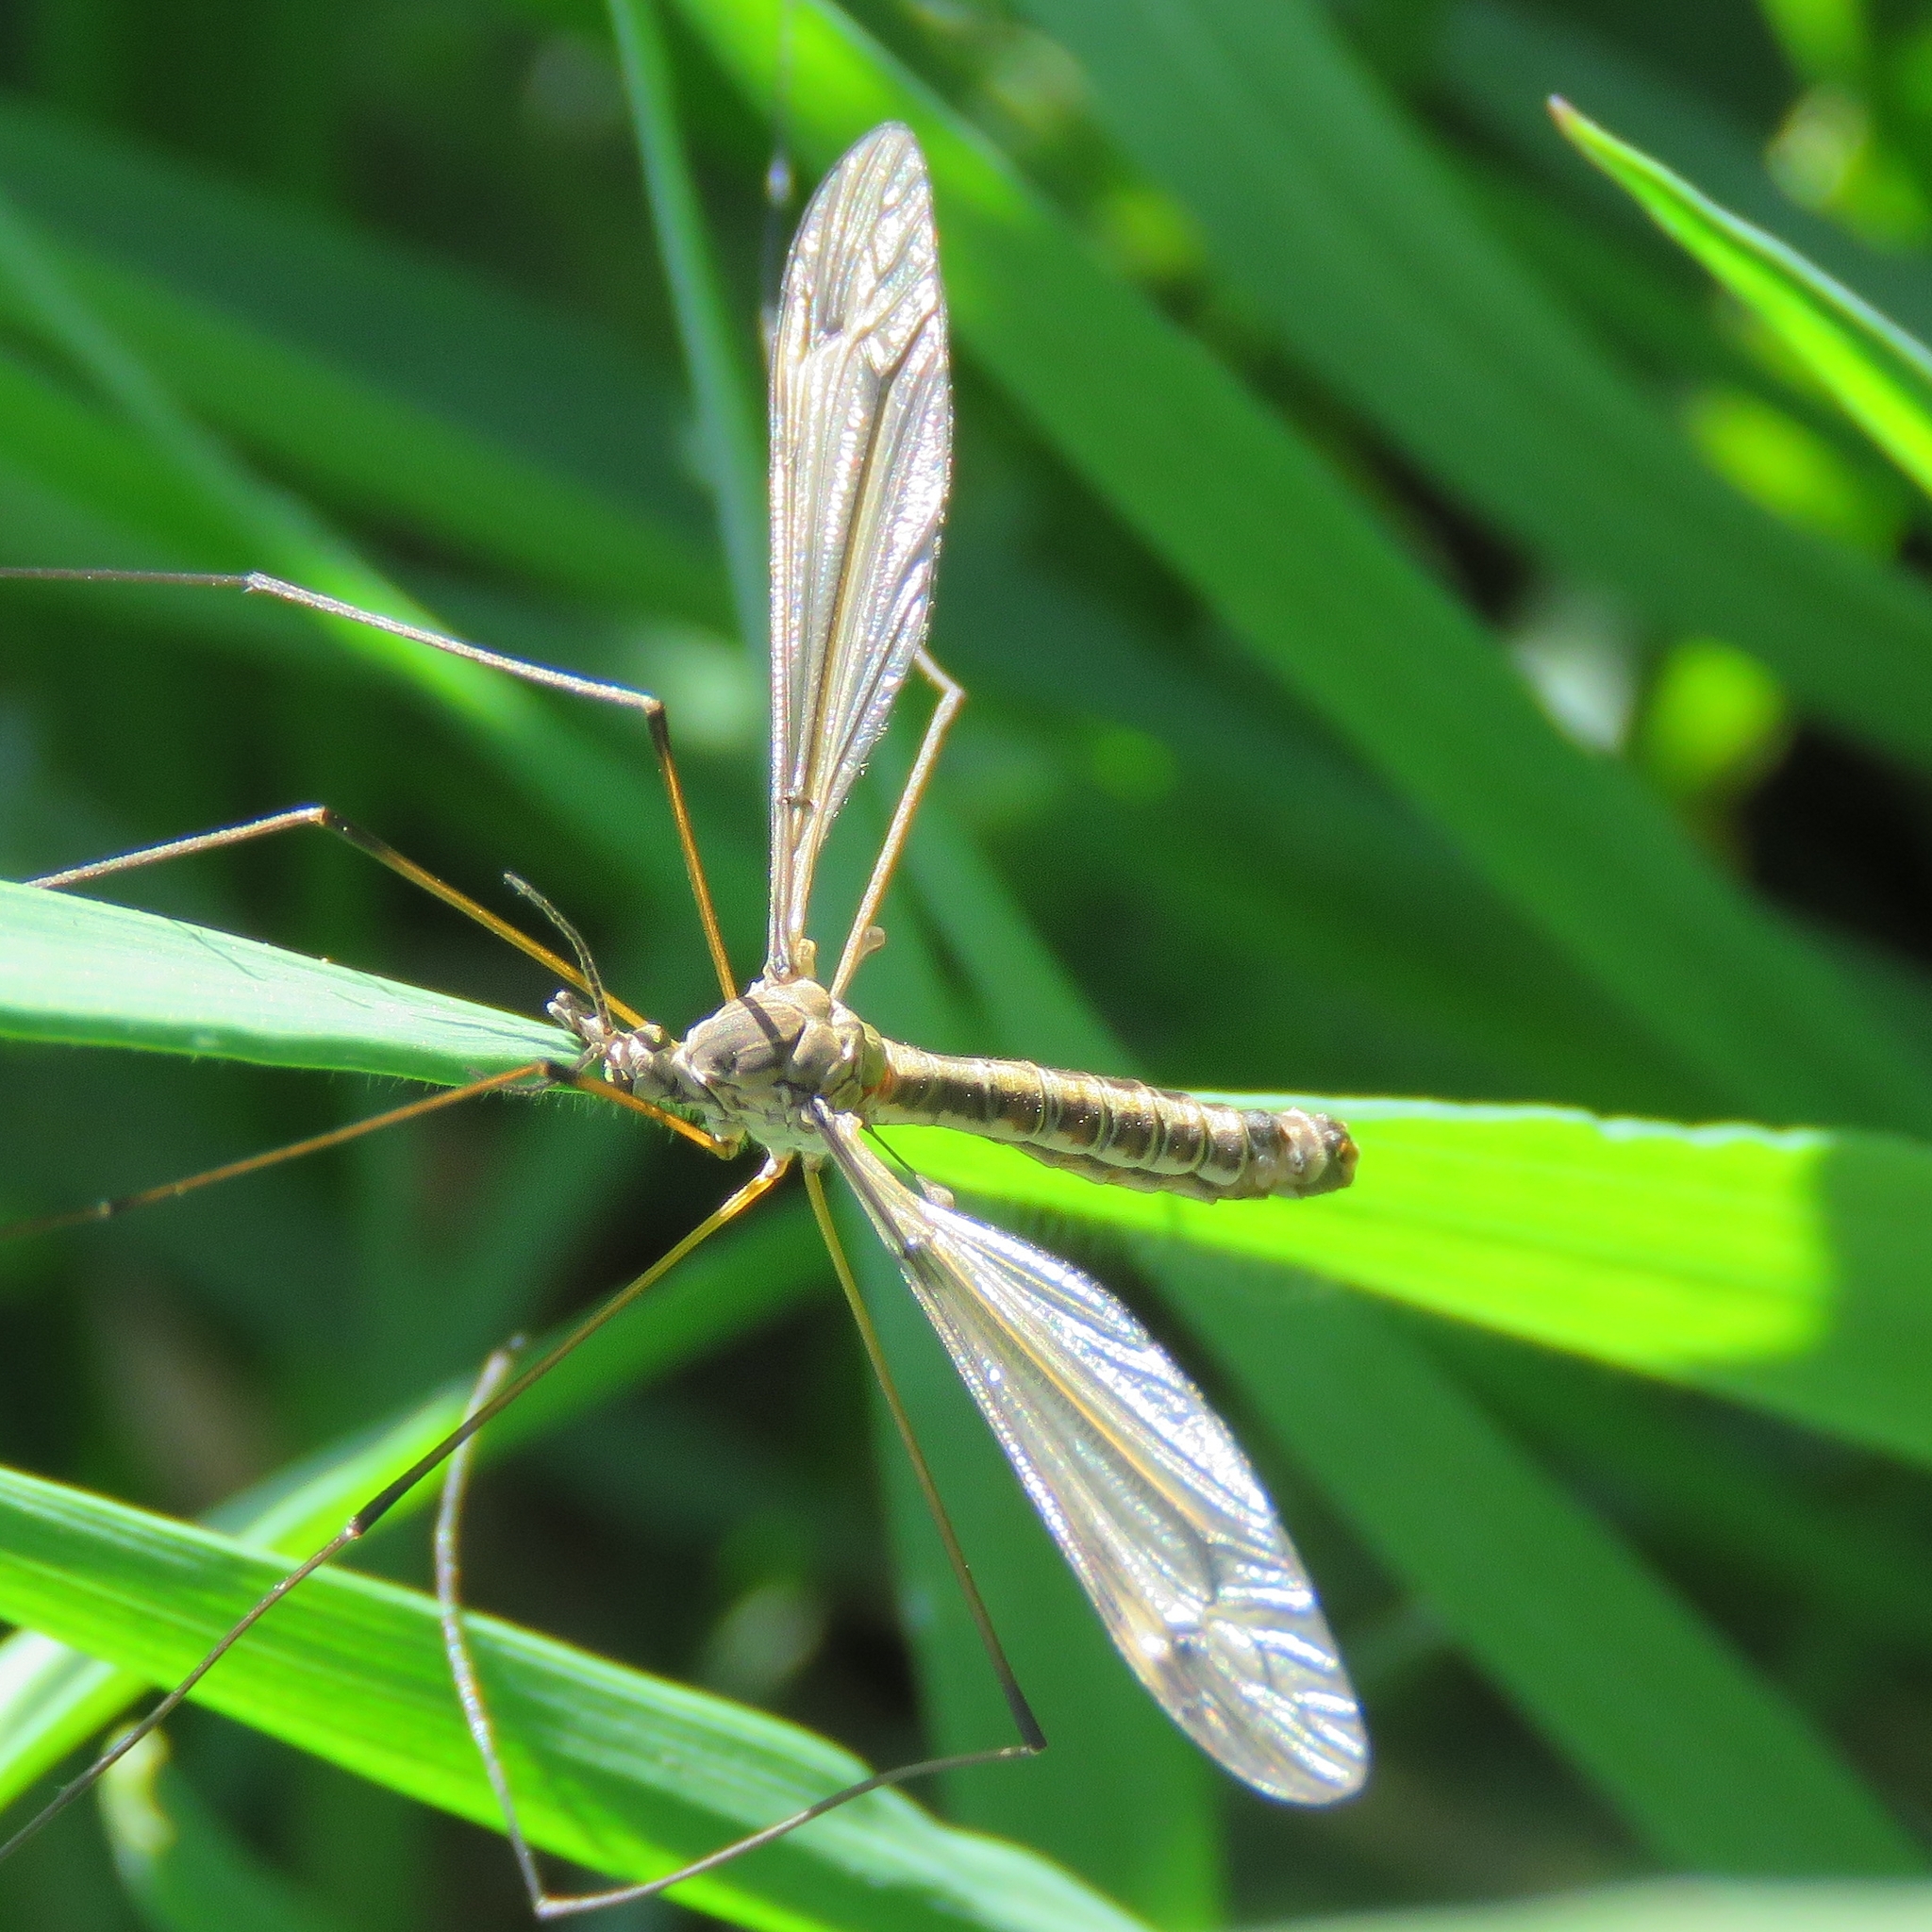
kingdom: Animalia
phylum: Arthropoda
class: Insecta
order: Diptera
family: Tipulidae
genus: Tipula
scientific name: Tipula lateralis
